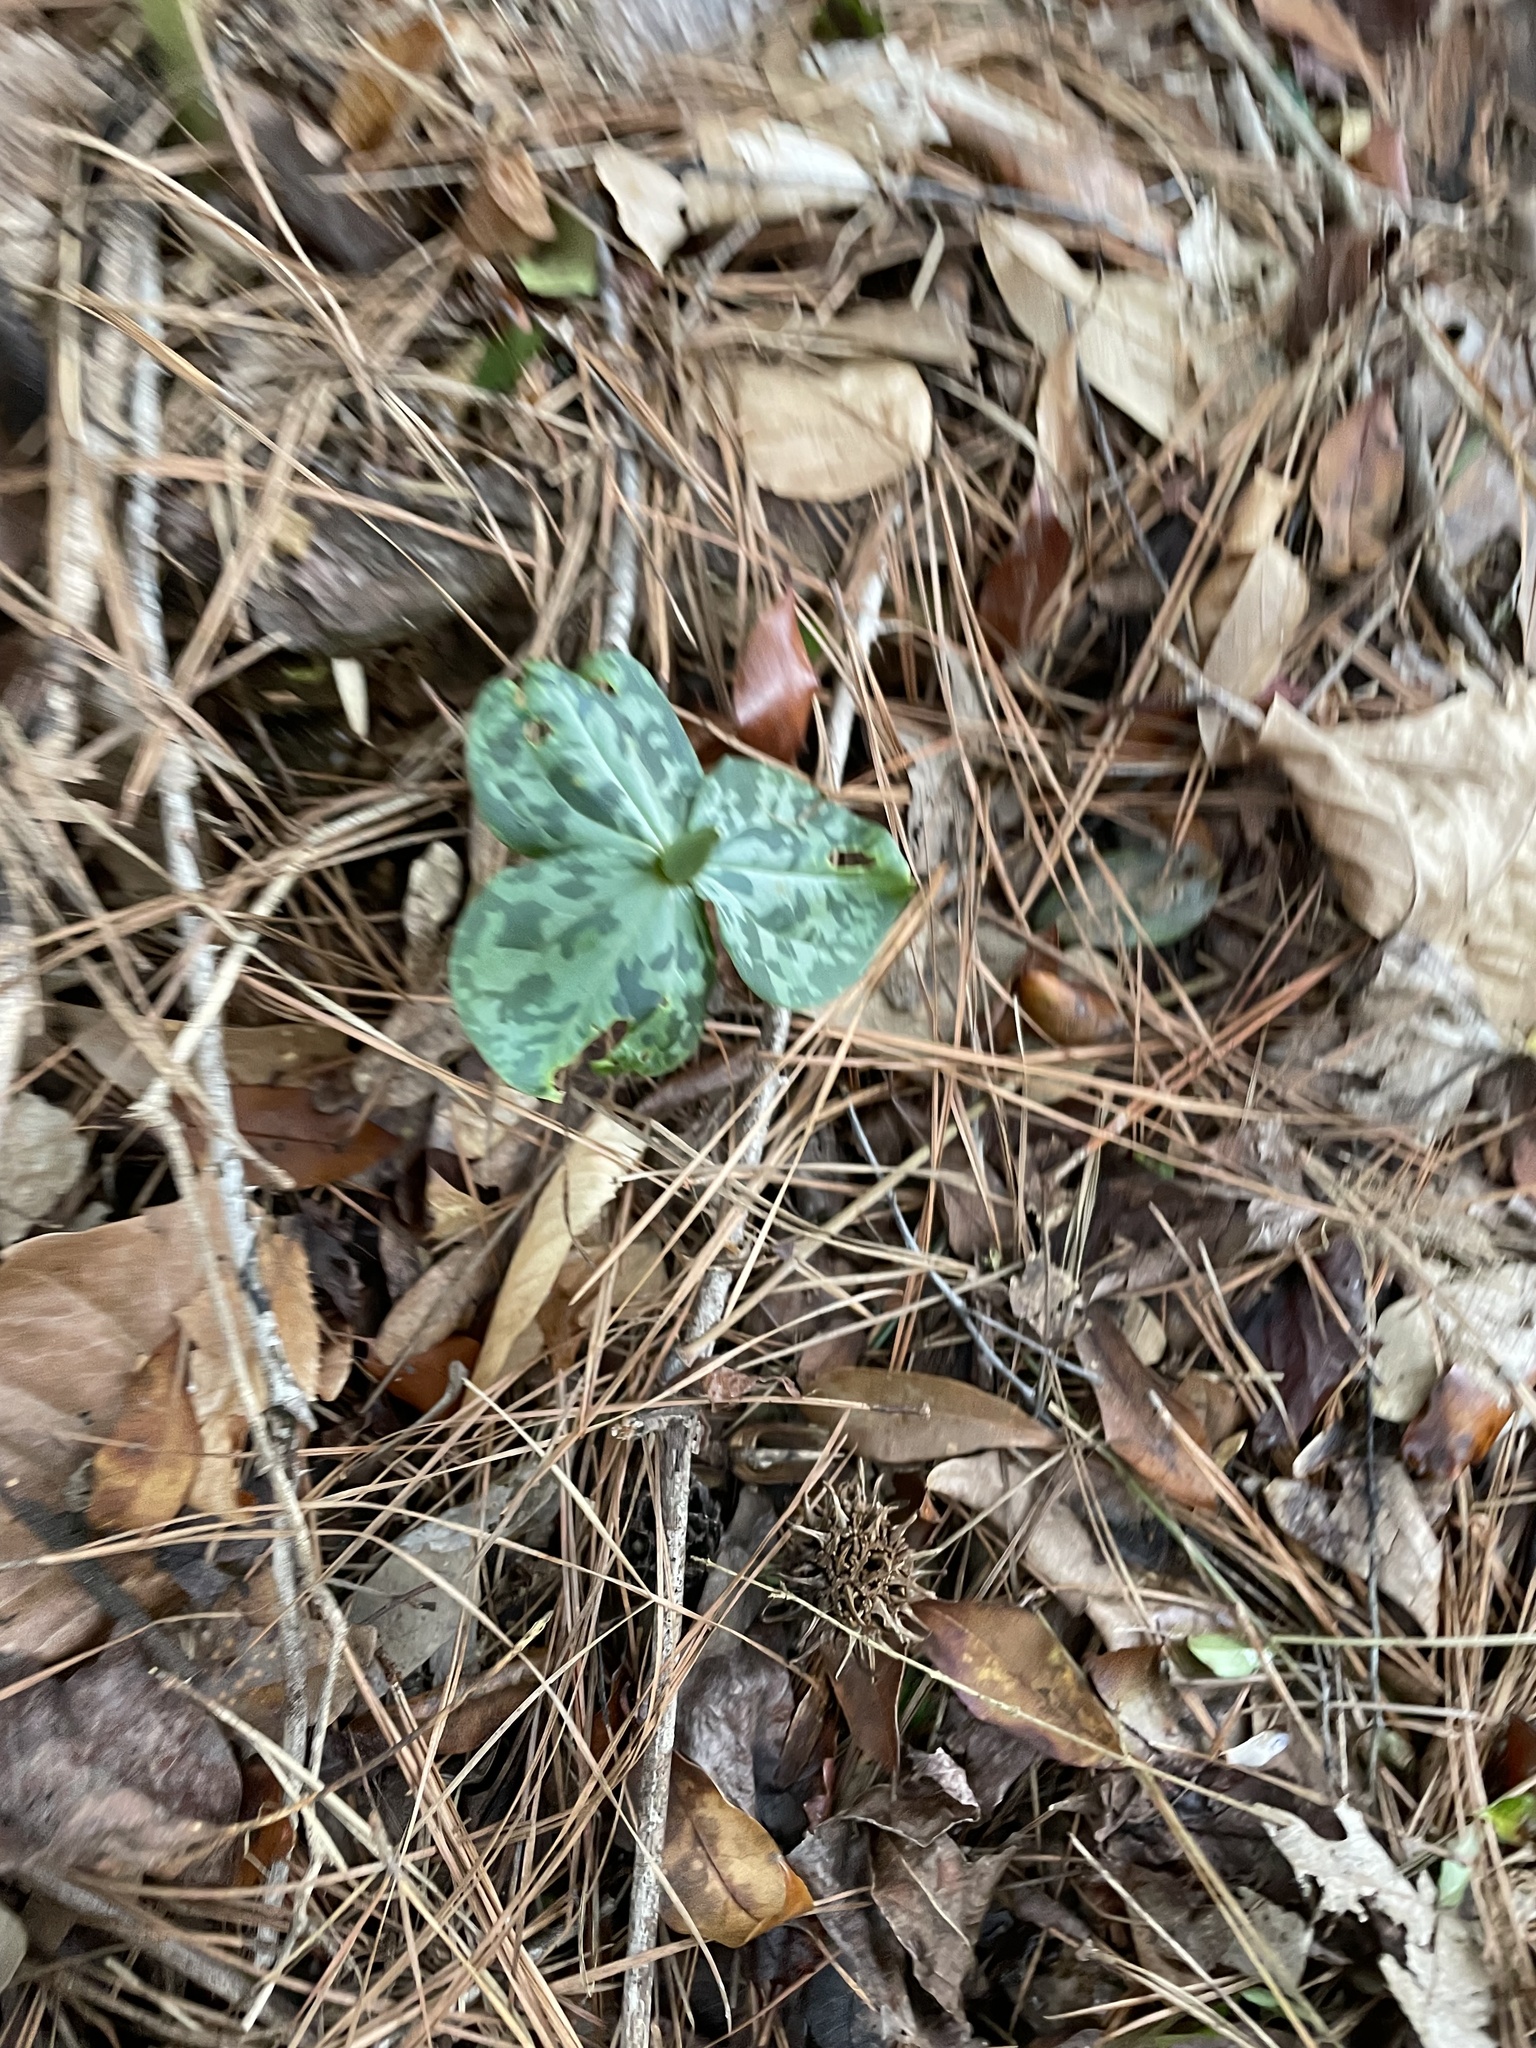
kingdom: Plantae
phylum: Tracheophyta
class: Liliopsida
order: Liliales
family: Melanthiaceae
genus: Trillium
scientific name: Trillium cuneatum
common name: Cuneate trillium
